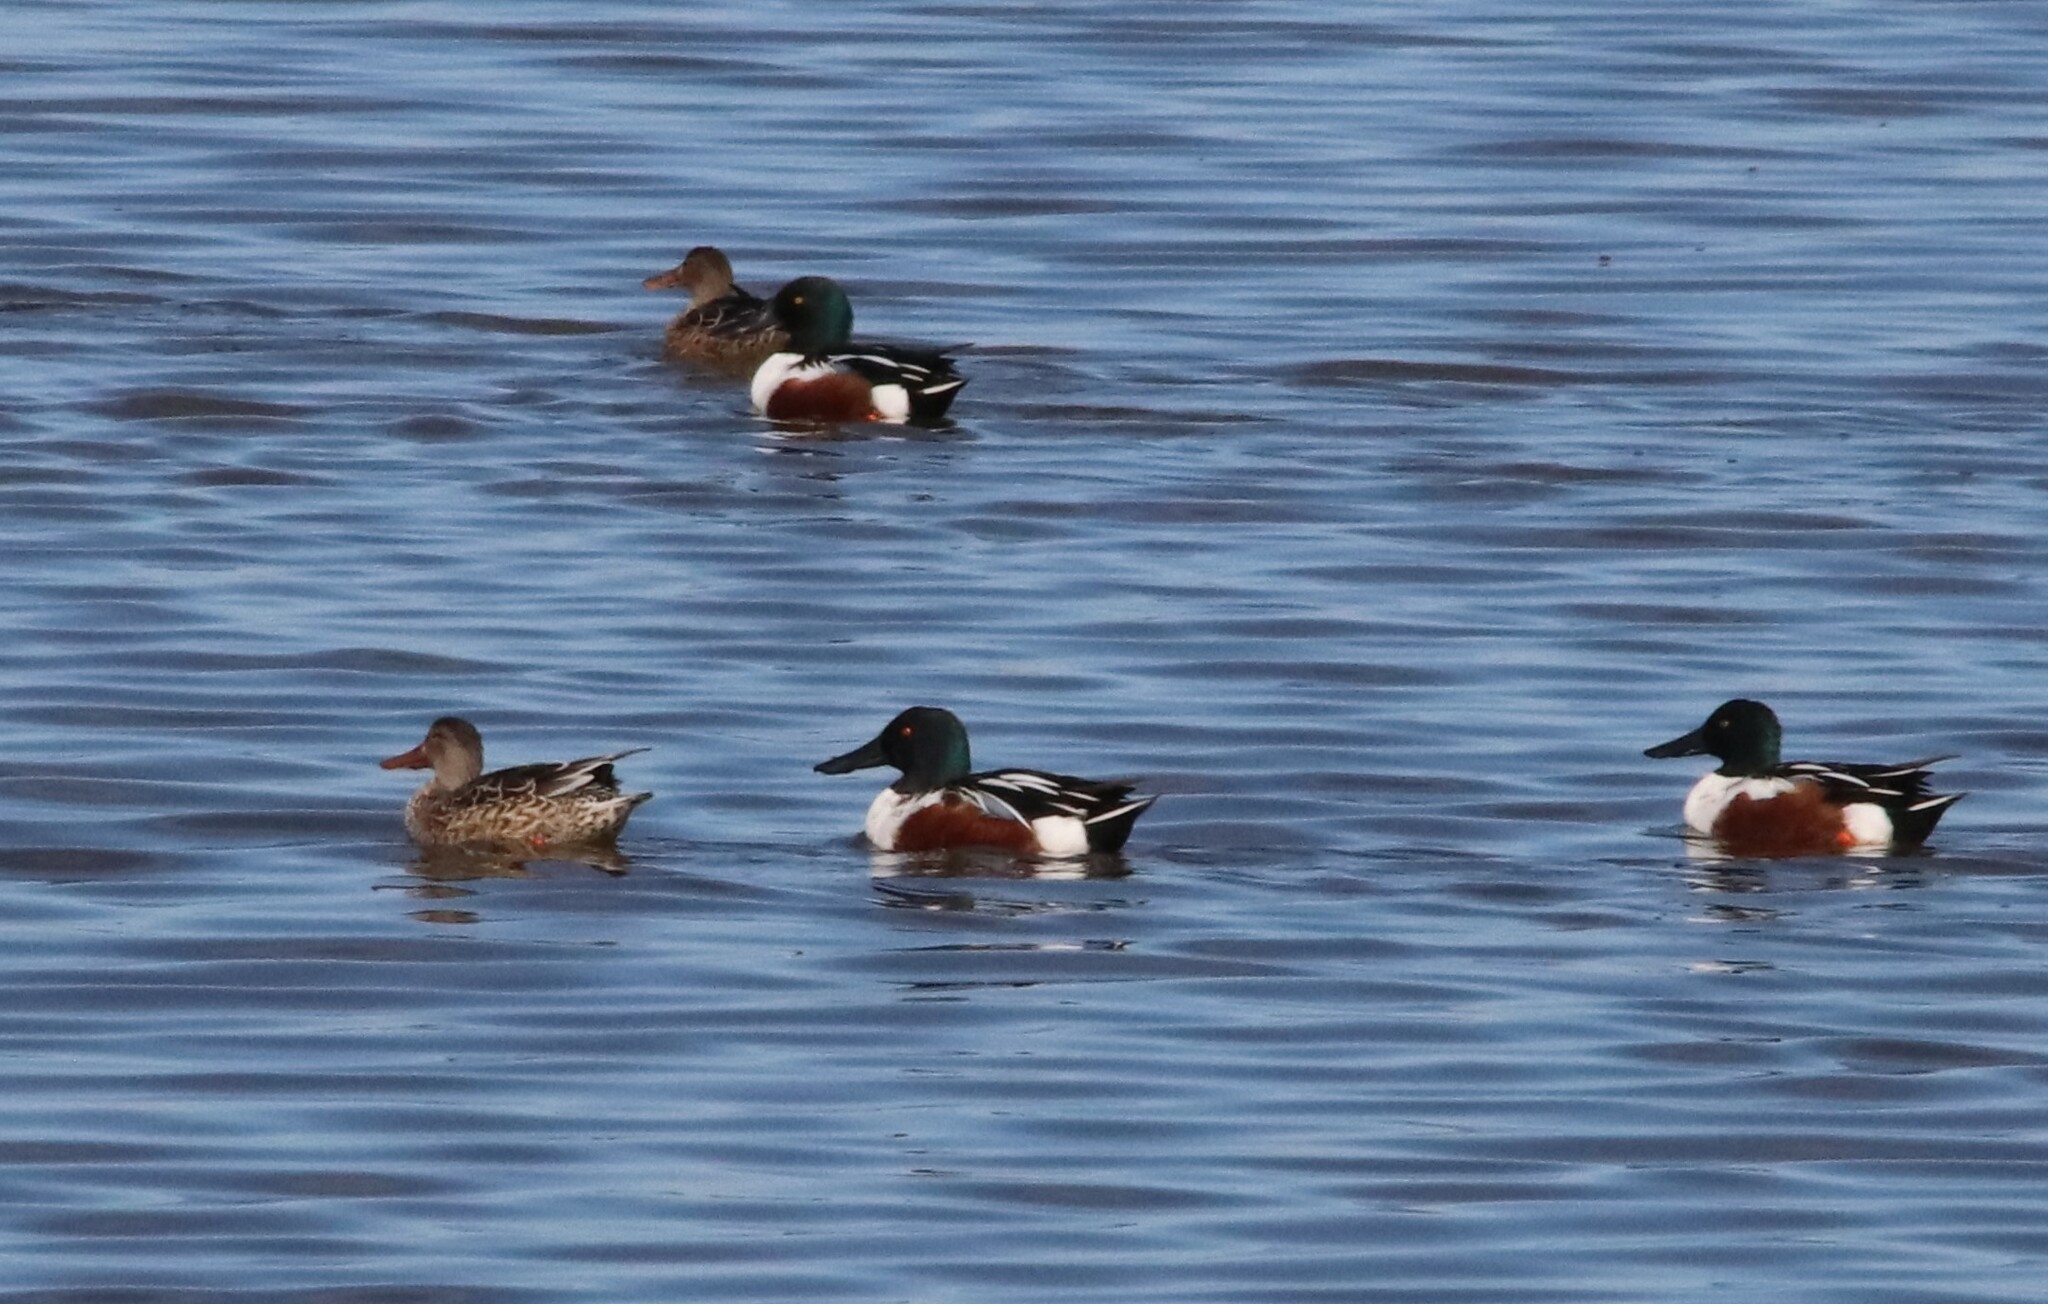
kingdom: Animalia
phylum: Chordata
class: Aves
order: Anseriformes
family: Anatidae
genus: Spatula
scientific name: Spatula clypeata
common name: Northern shoveler
